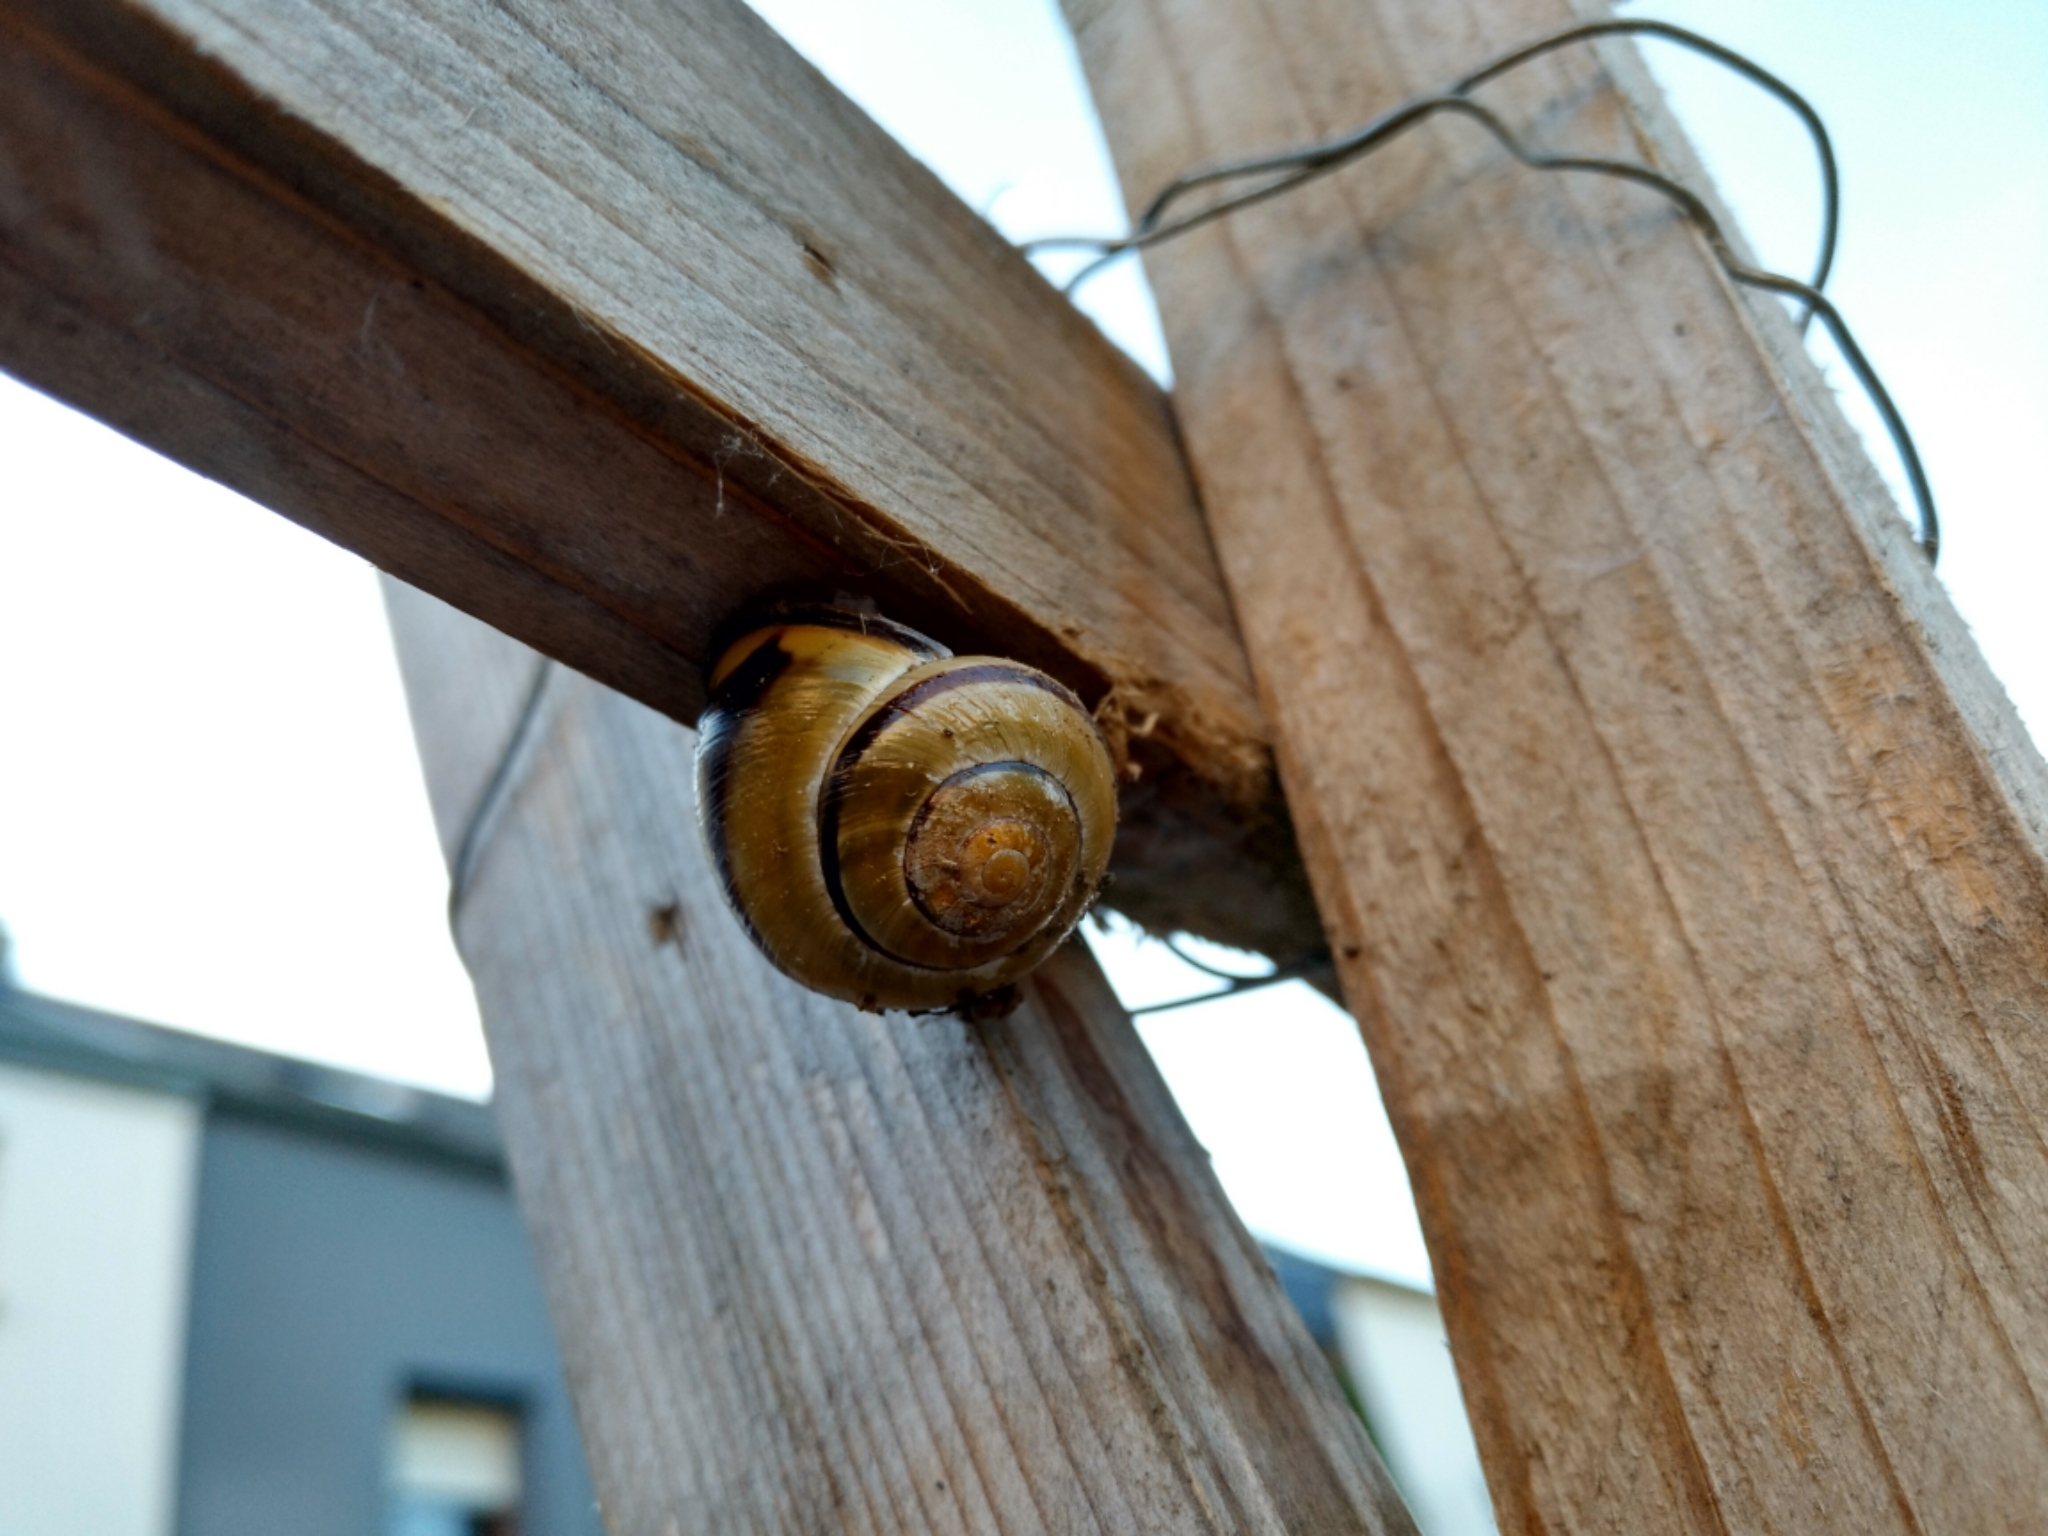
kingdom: Animalia
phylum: Mollusca
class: Gastropoda
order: Stylommatophora
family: Helicidae
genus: Cepaea
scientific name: Cepaea nemoralis
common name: Grovesnail
